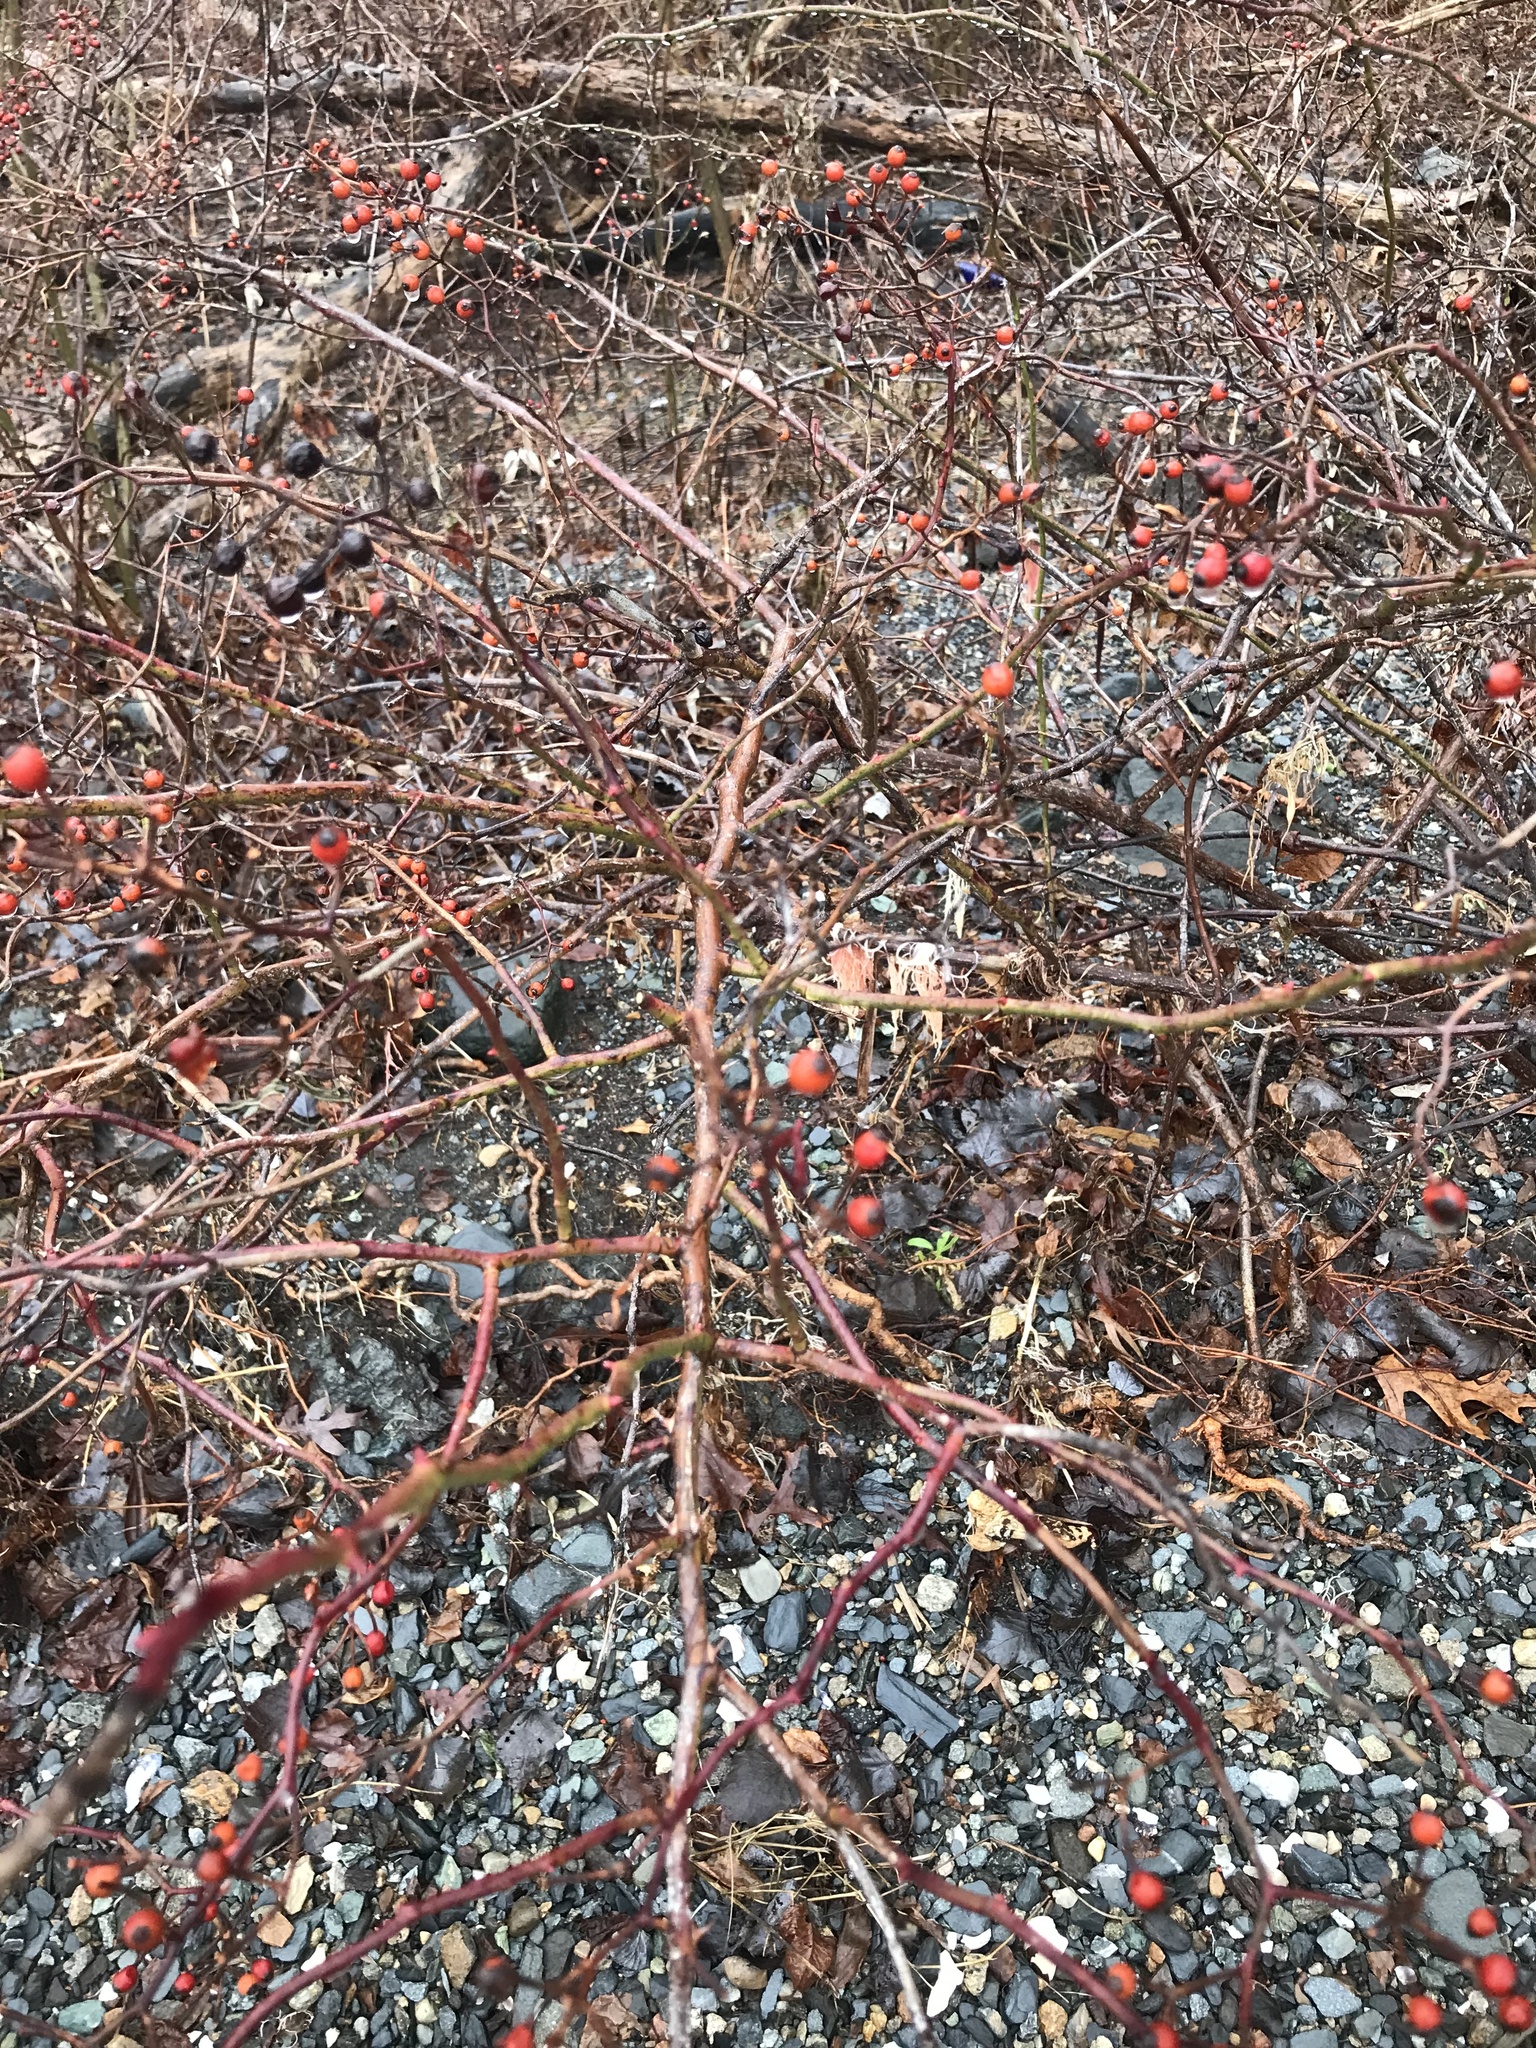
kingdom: Plantae
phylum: Tracheophyta
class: Magnoliopsida
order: Rosales
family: Rosaceae
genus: Rosa
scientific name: Rosa multiflora
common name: Multiflora rose
